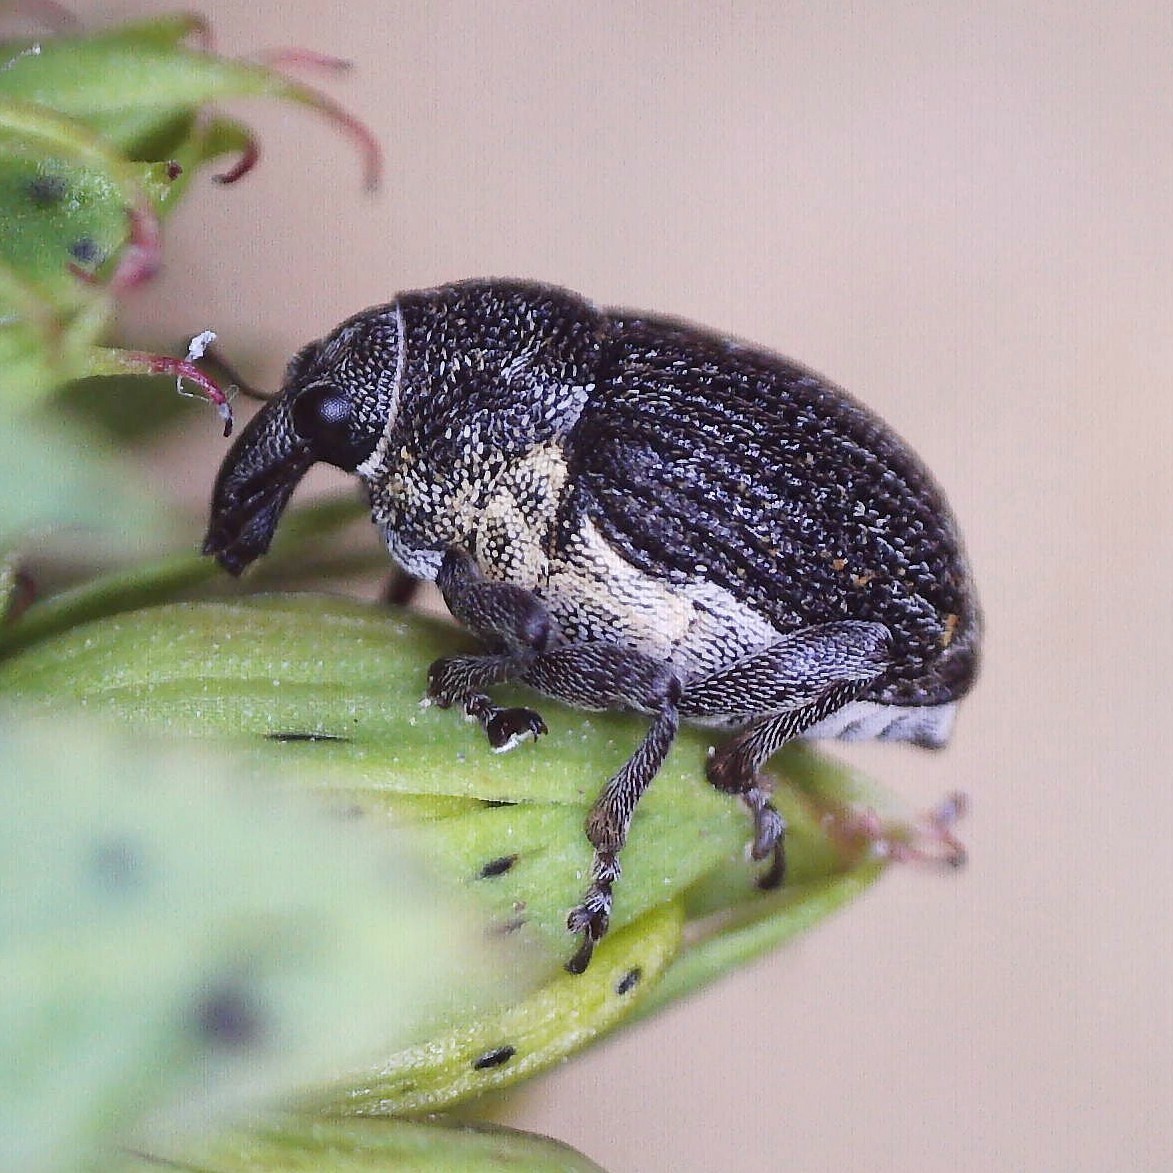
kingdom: Animalia
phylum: Arthropoda
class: Insecta
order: Coleoptera
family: Curculionidae
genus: Rhinoncus
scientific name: Rhinoncus leucostigma
